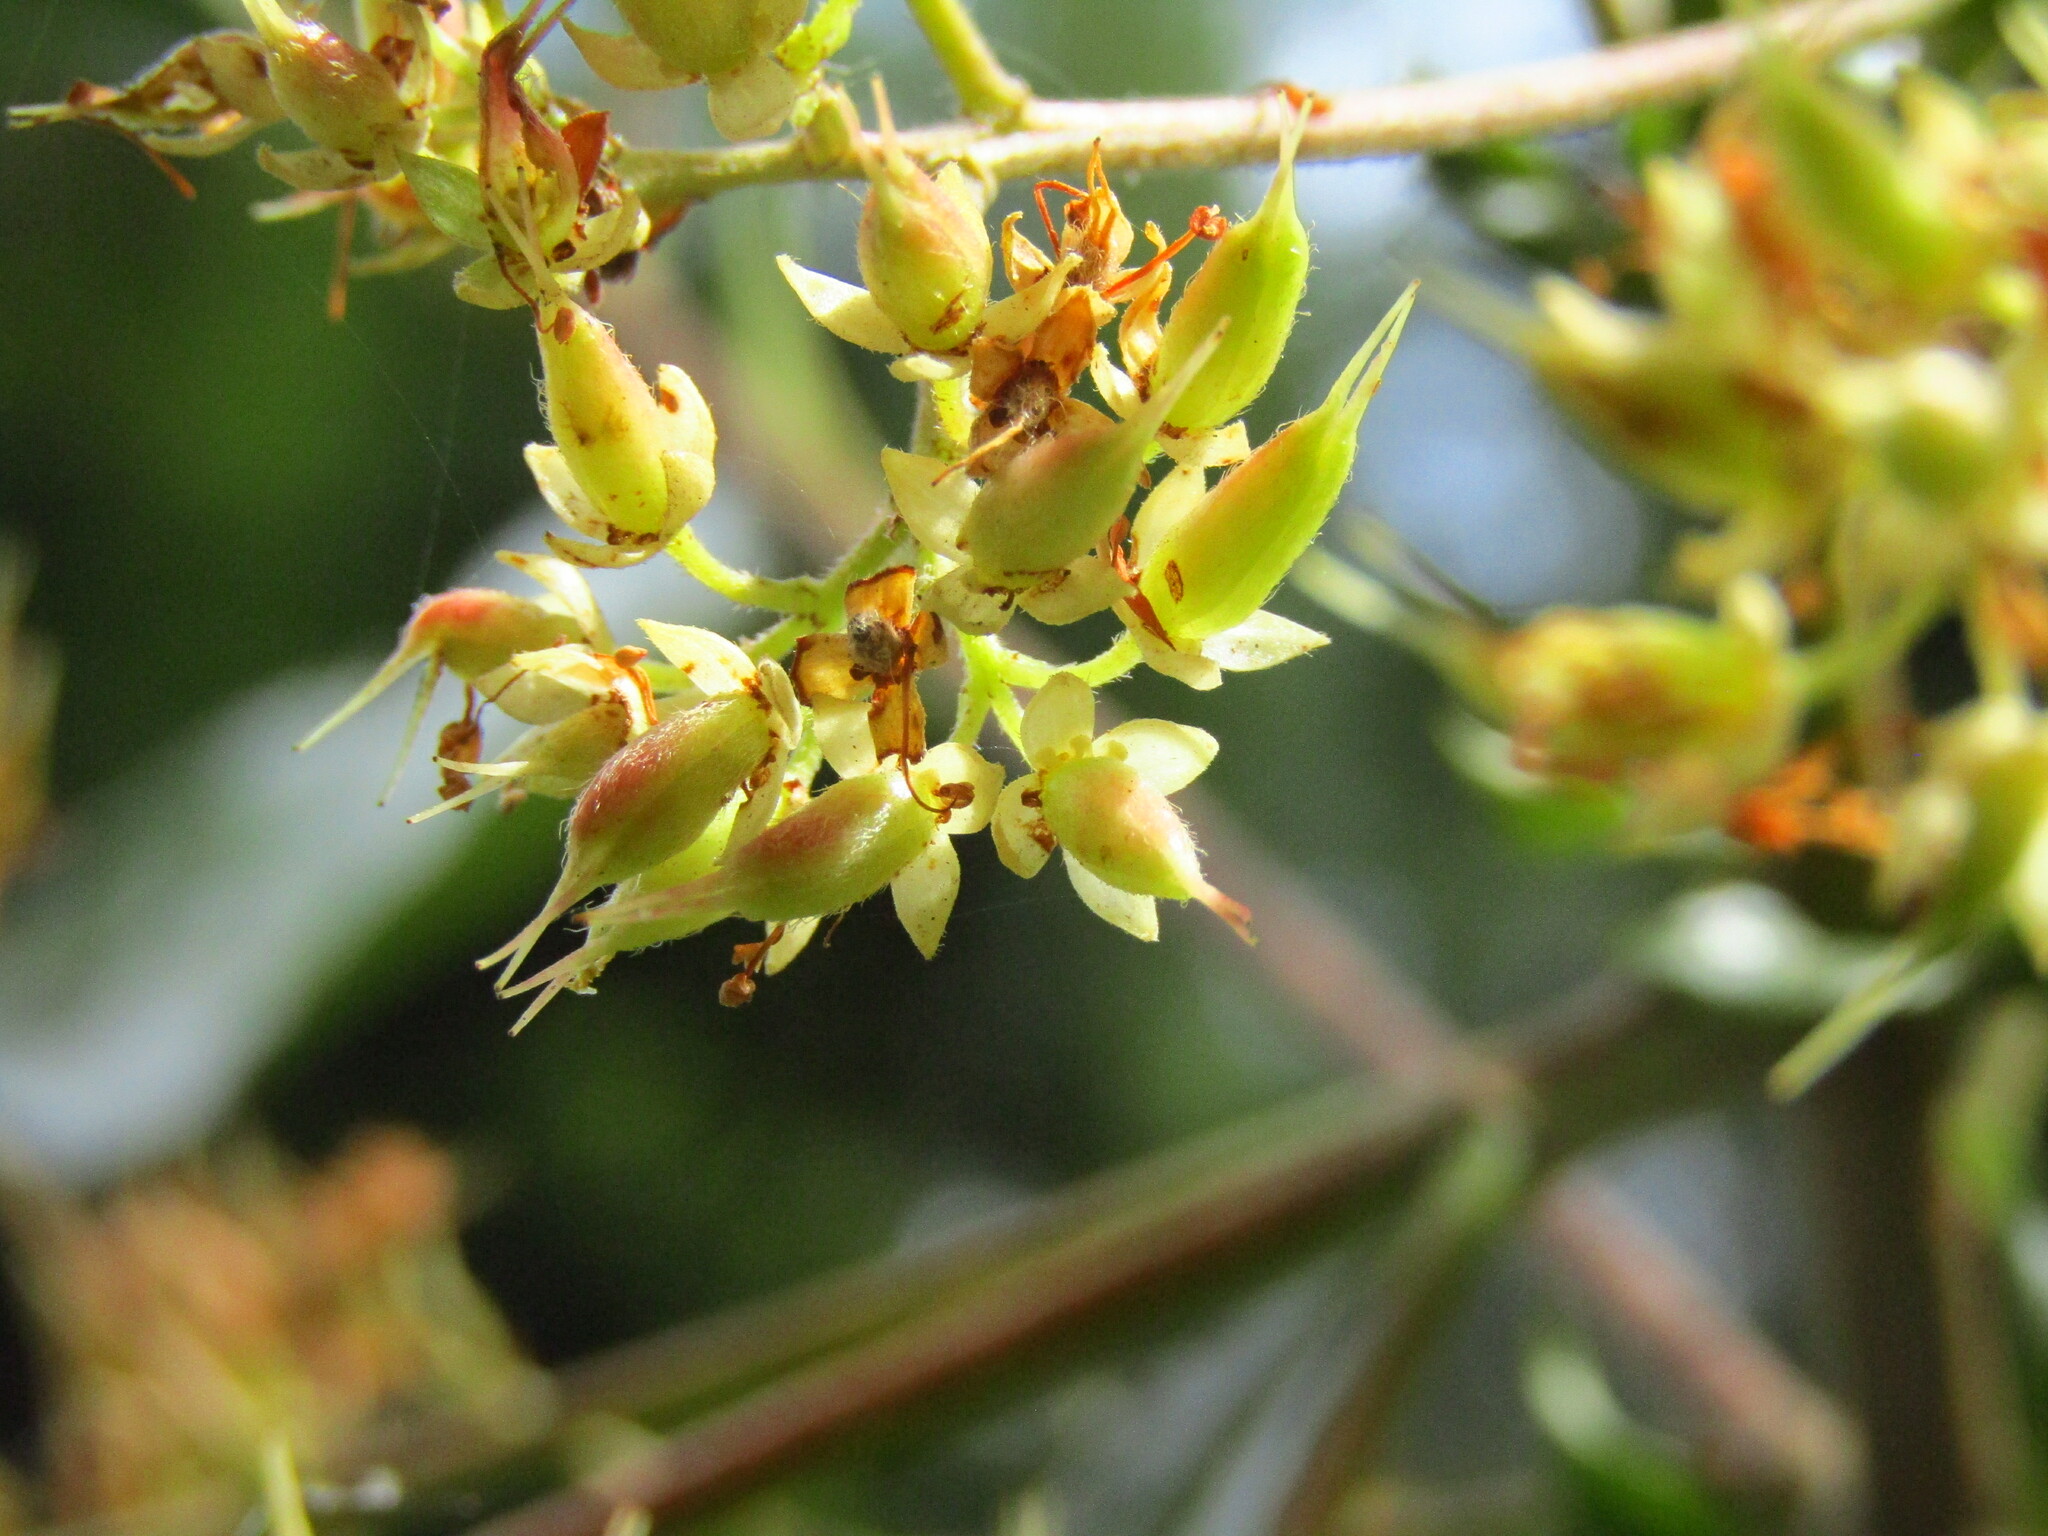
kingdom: Plantae
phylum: Tracheophyta
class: Magnoliopsida
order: Oxalidales
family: Cunoniaceae
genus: Caldcluvia
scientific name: Caldcluvia paniculata
